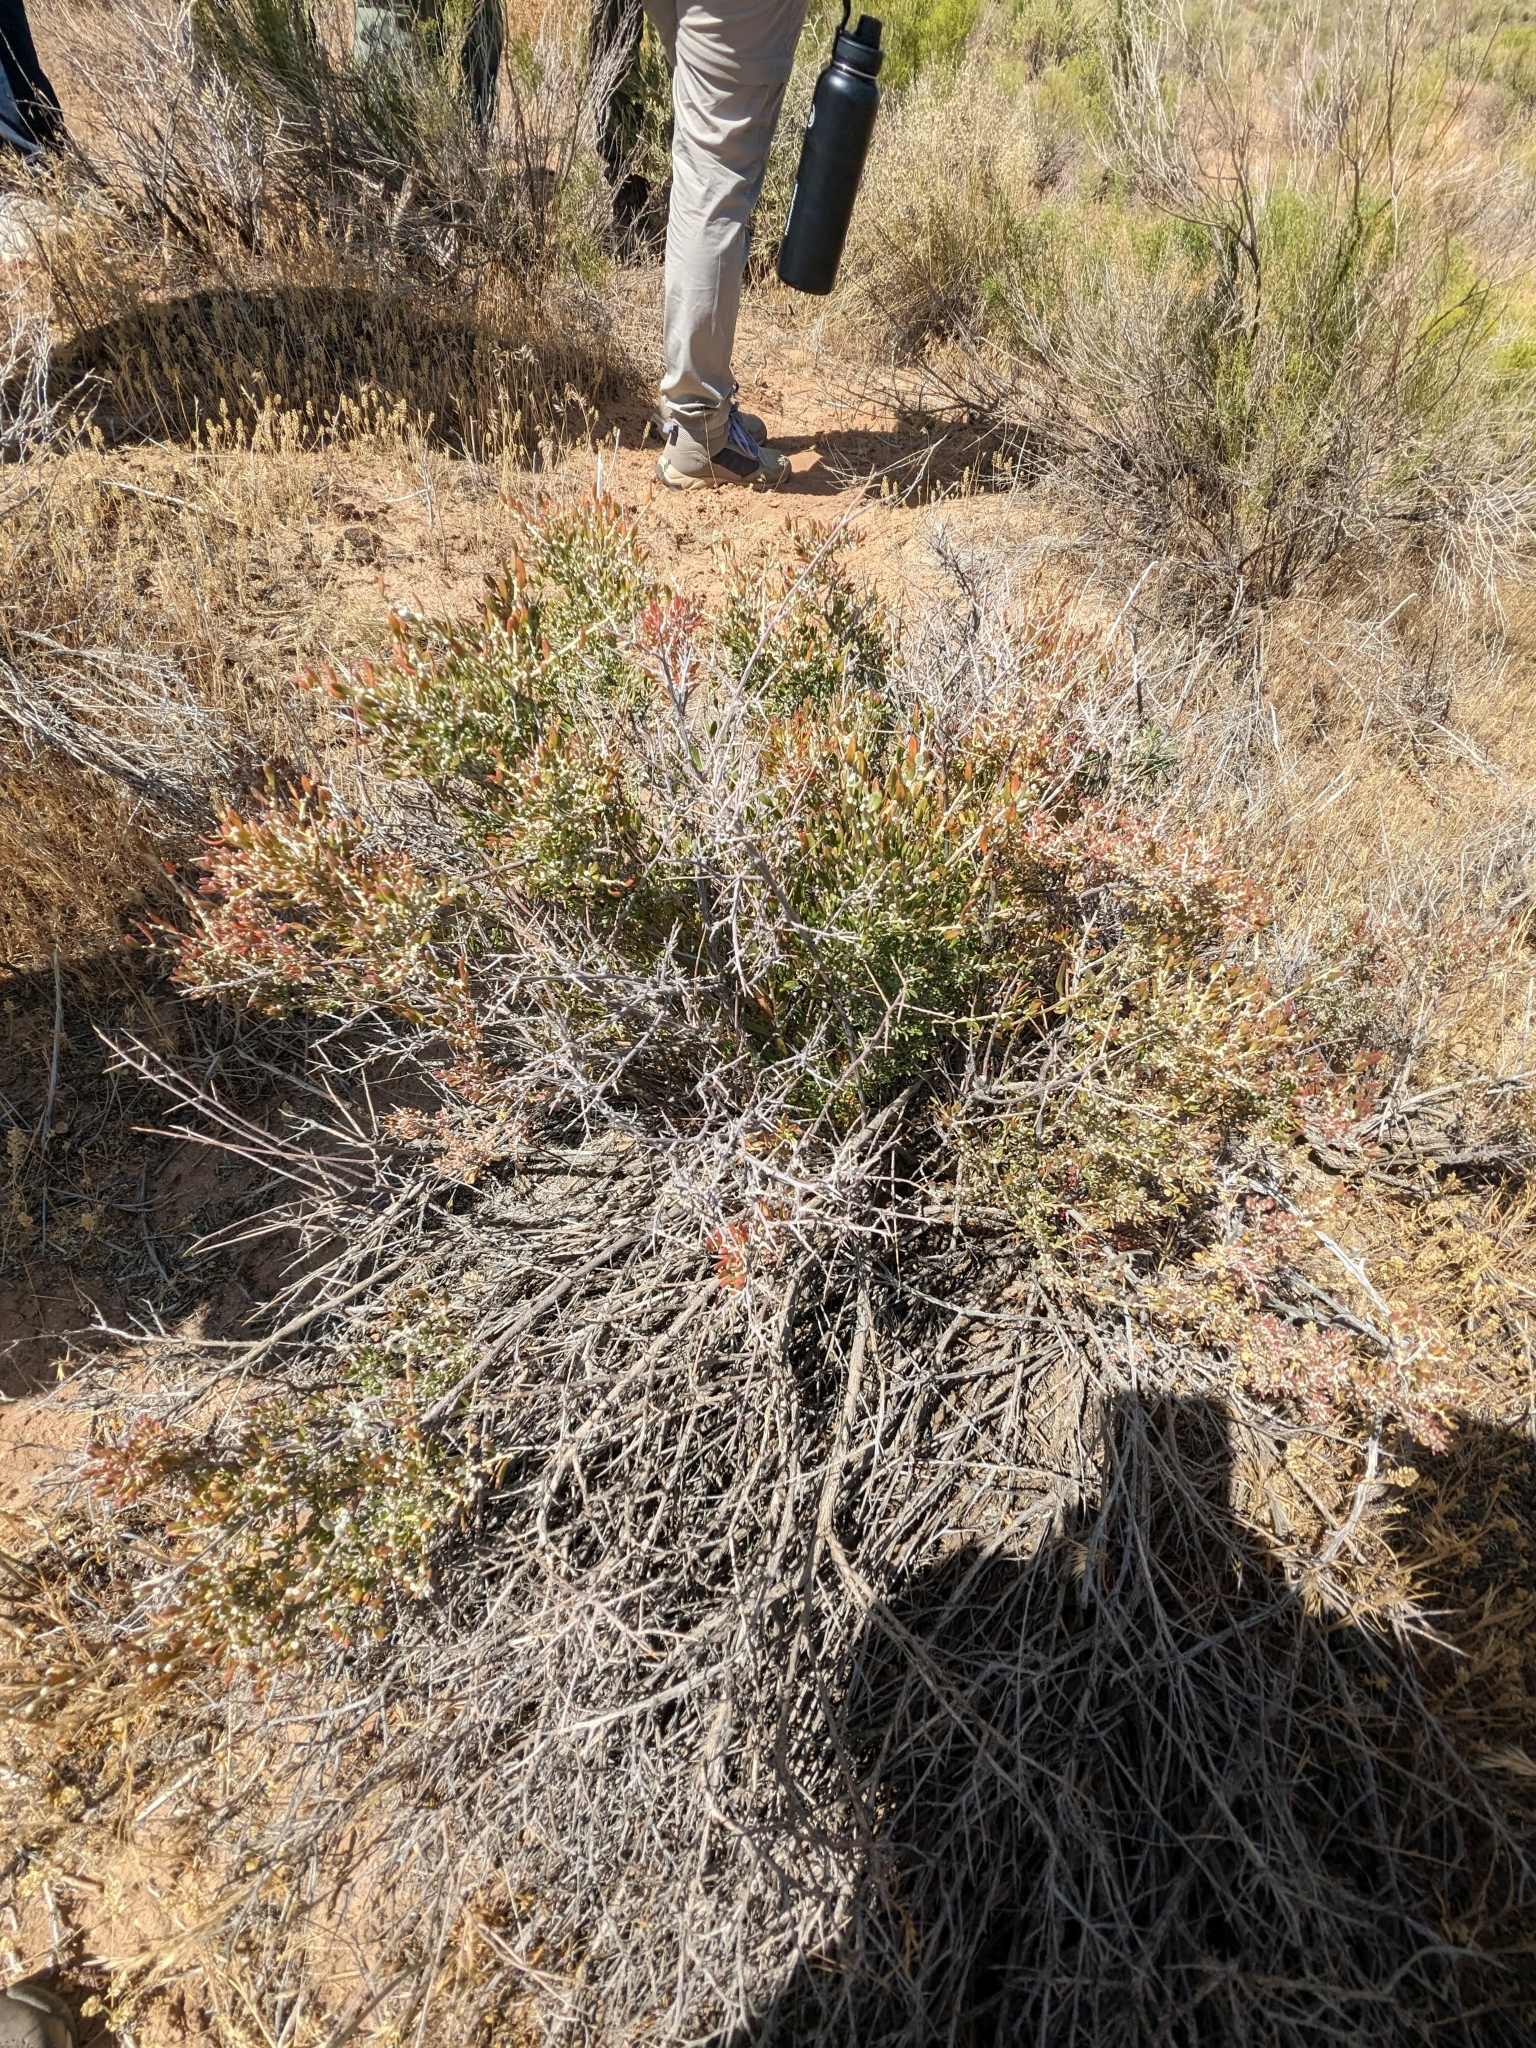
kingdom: Plantae
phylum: Tracheophyta
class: Magnoliopsida
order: Caryophyllales
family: Amaranthaceae
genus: Grayia
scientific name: Grayia spinosa
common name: Spiny hopsage
